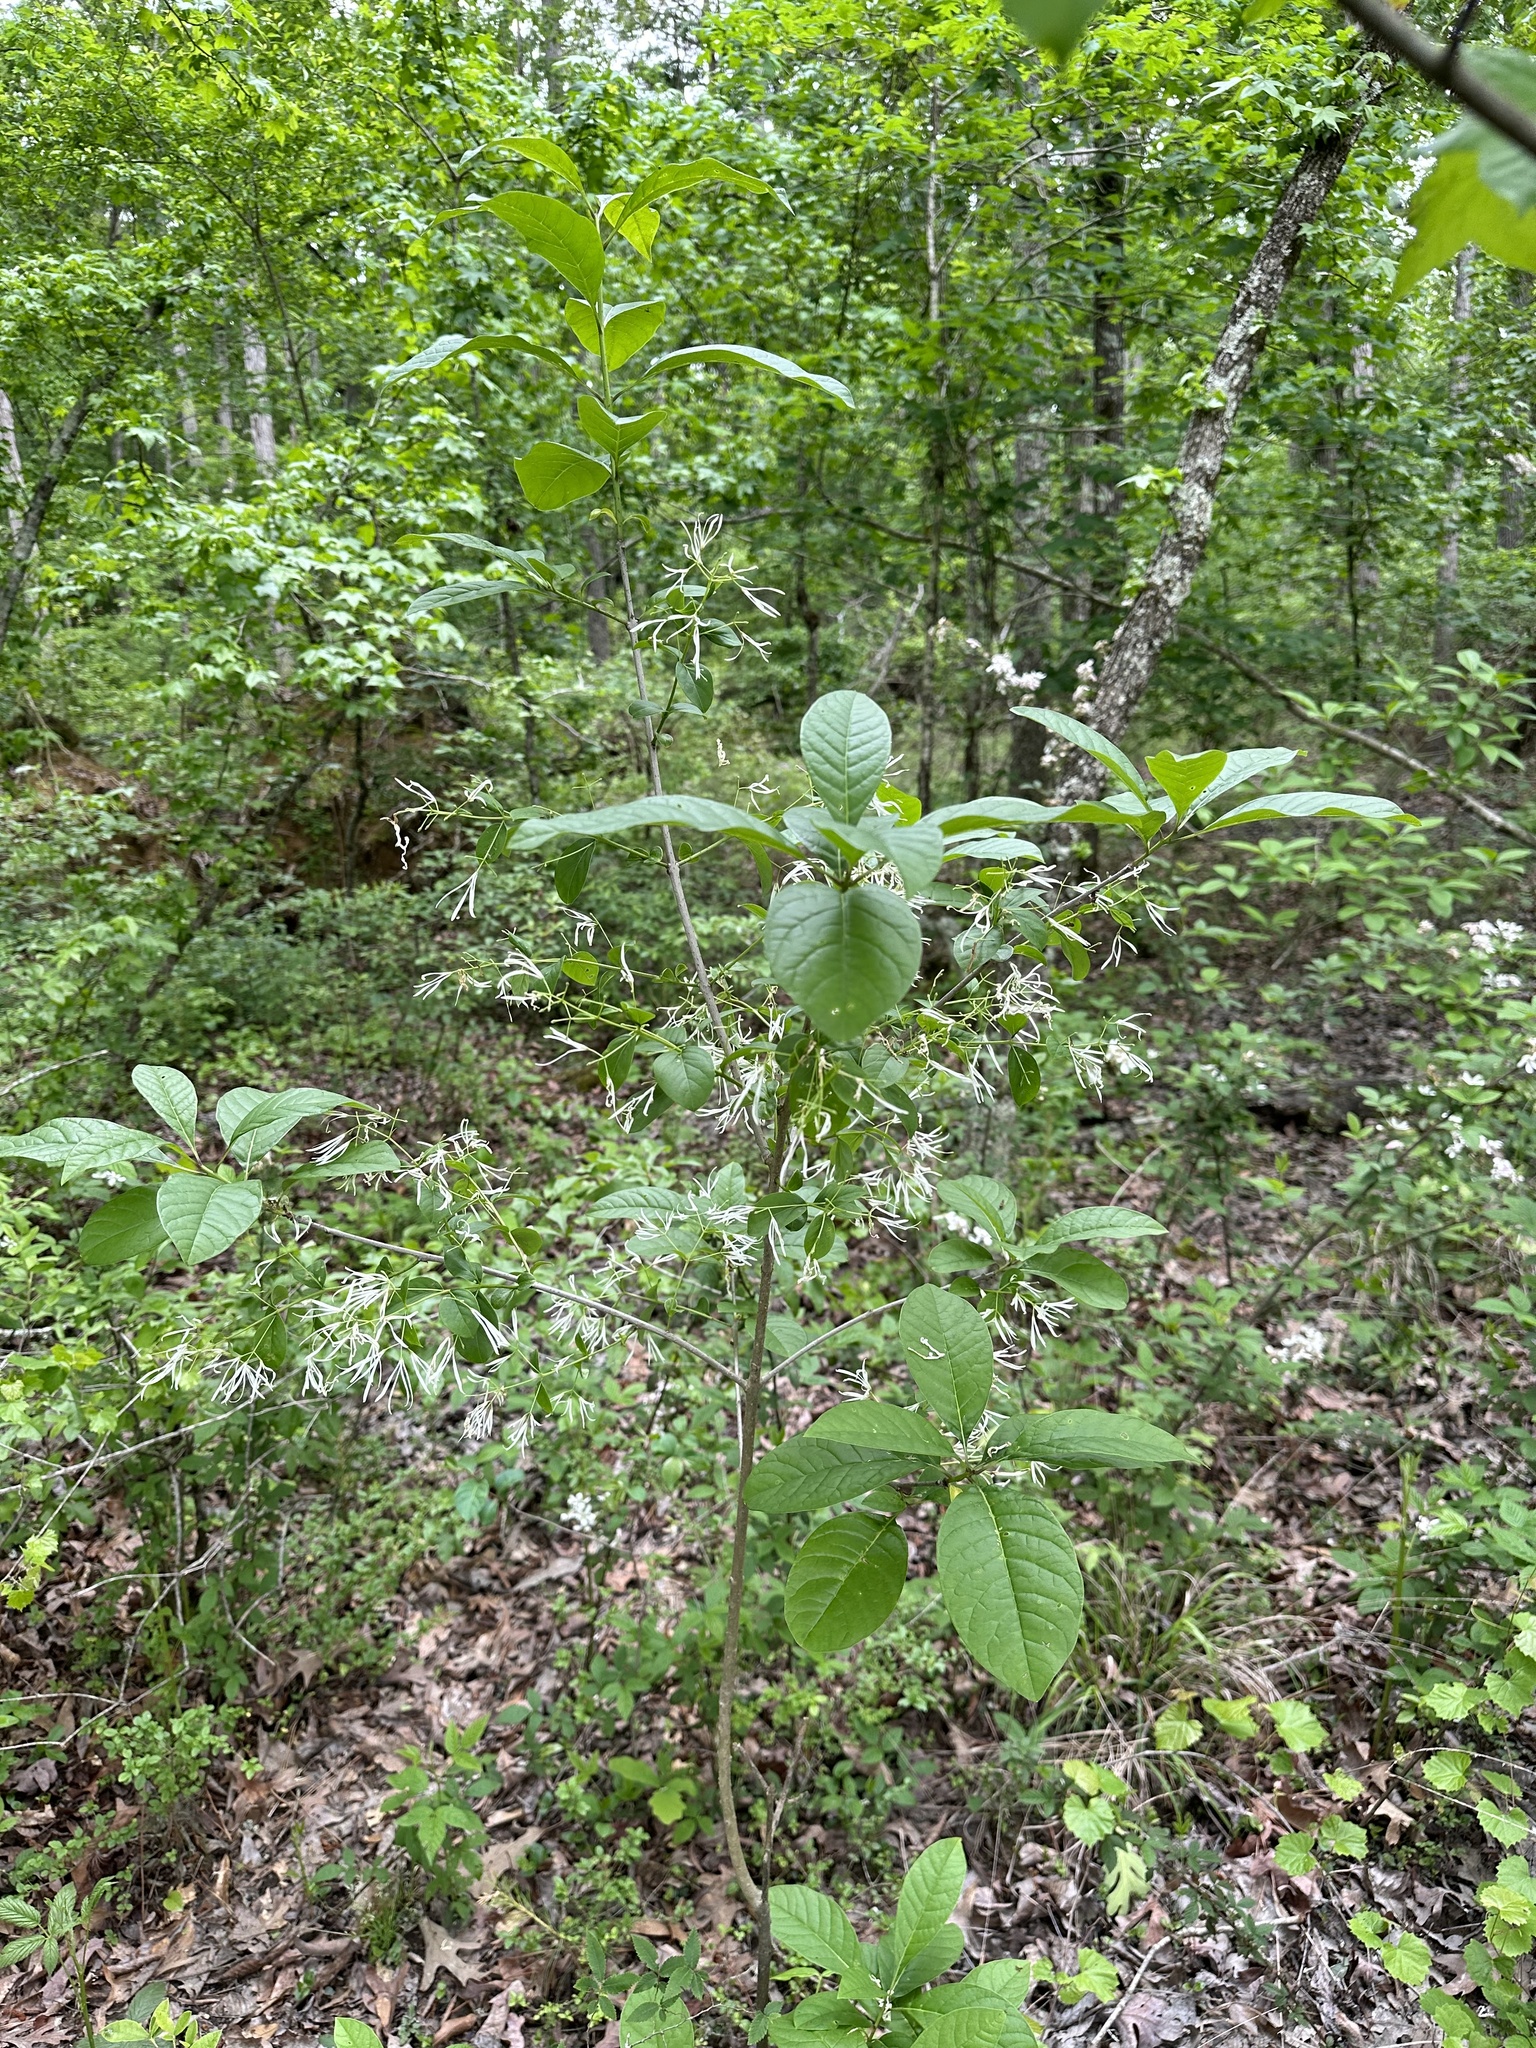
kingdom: Plantae
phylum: Tracheophyta
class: Magnoliopsida
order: Lamiales
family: Oleaceae
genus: Chionanthus
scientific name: Chionanthus virginicus
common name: American fringetree
